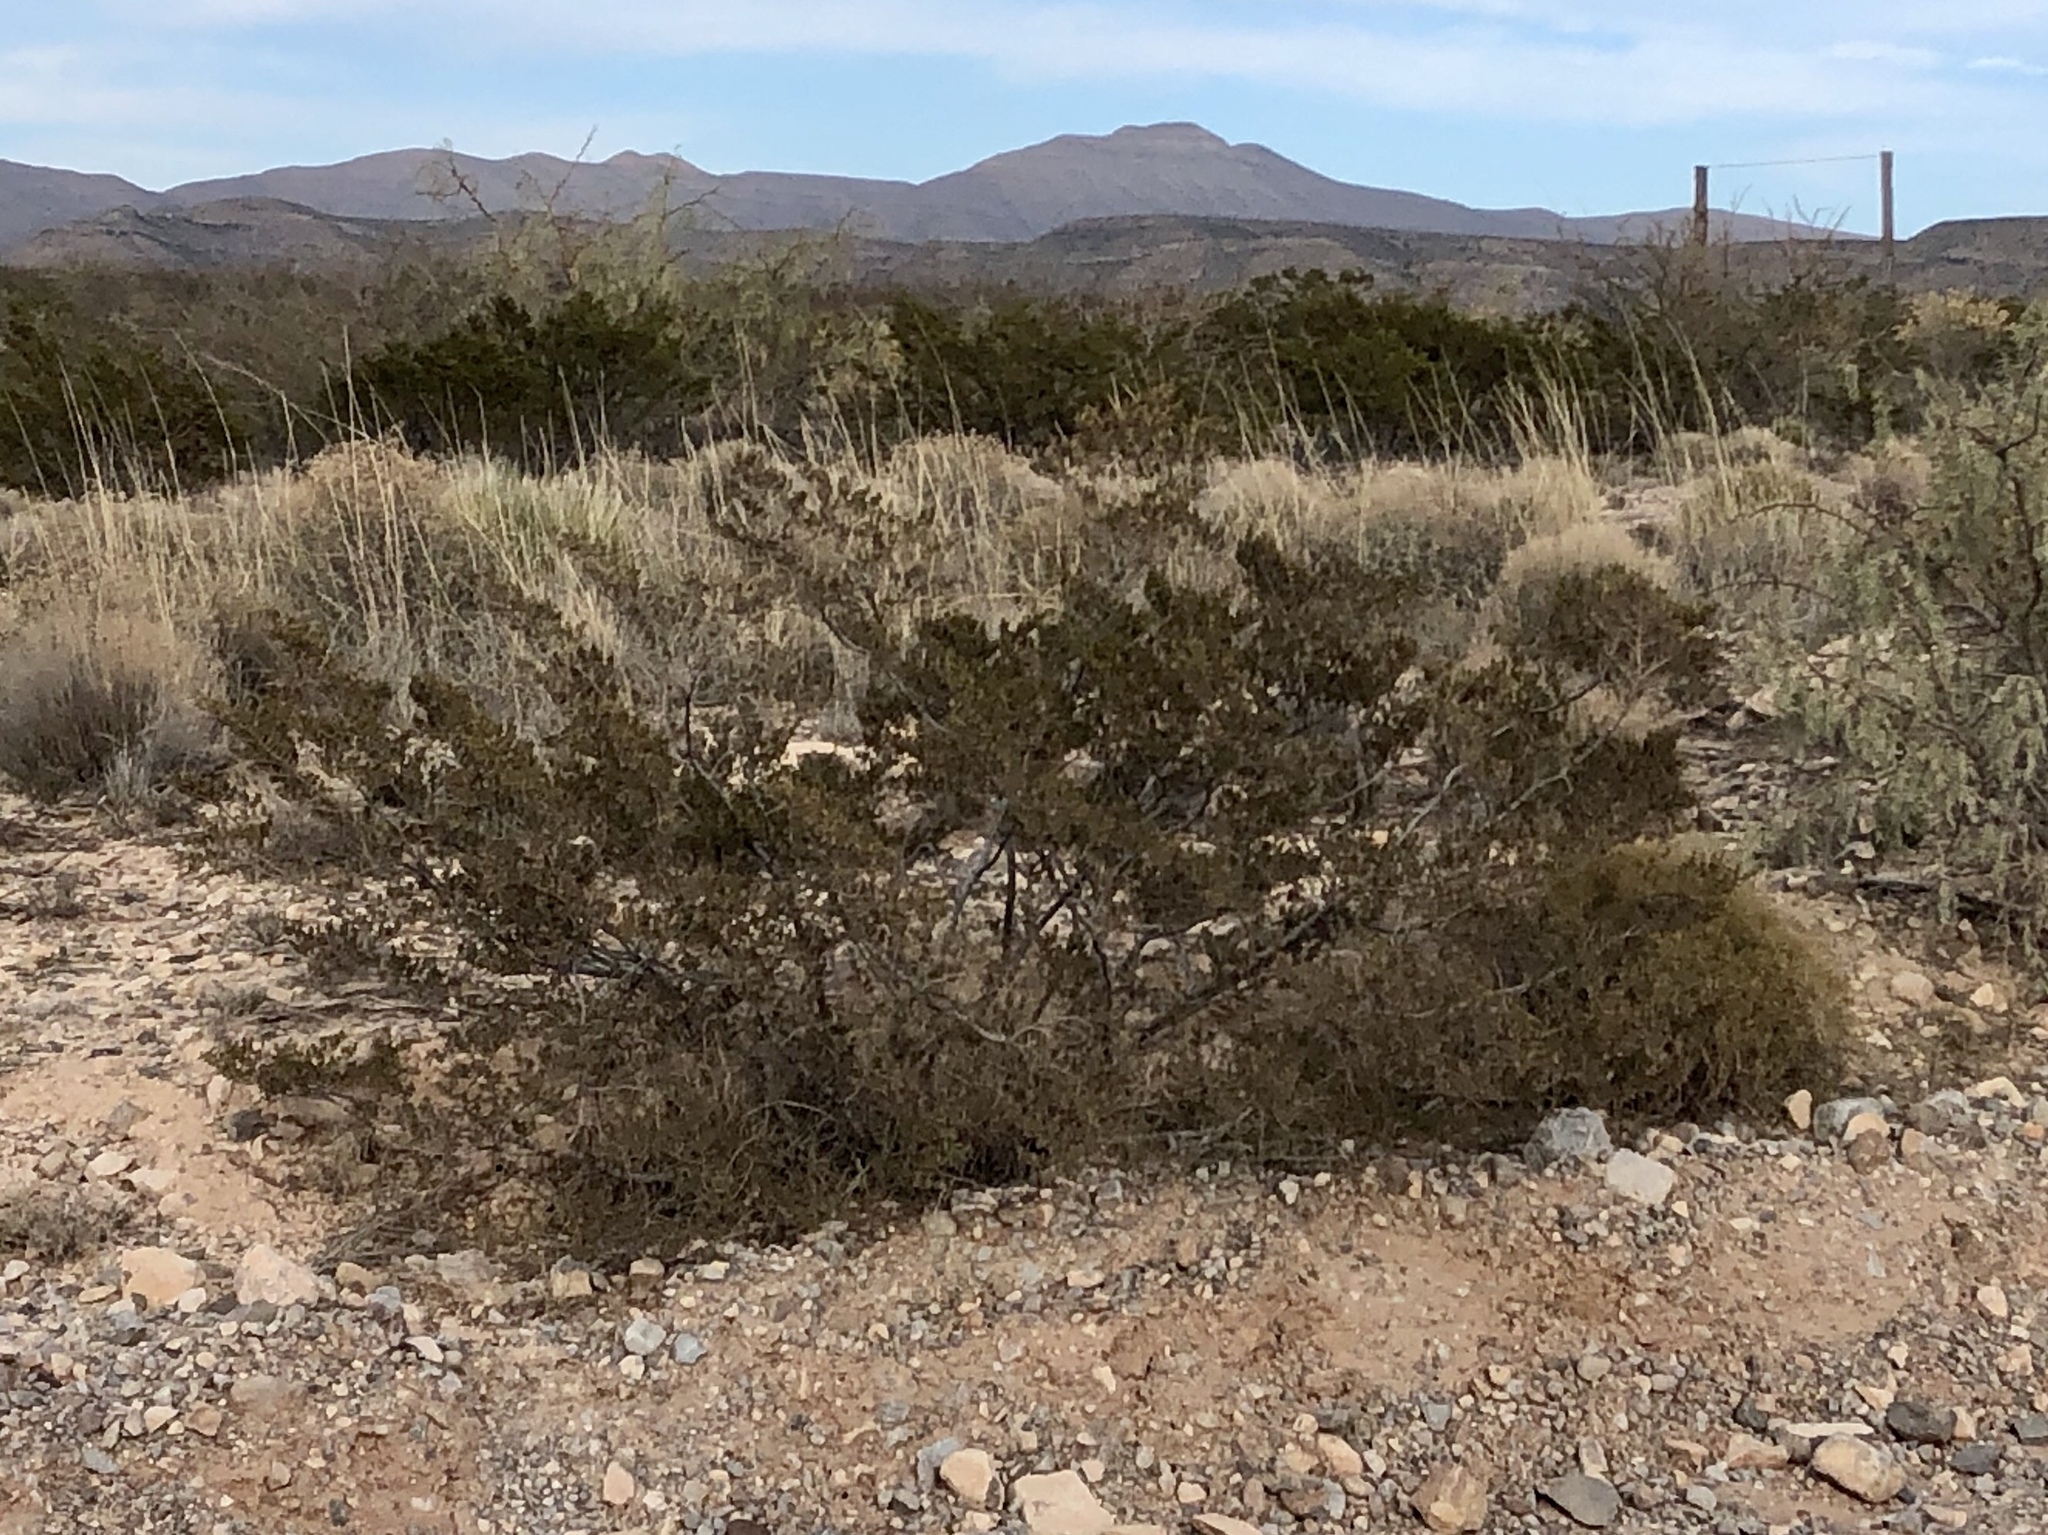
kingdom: Plantae
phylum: Tracheophyta
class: Magnoliopsida
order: Zygophyllales
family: Zygophyllaceae
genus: Larrea
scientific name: Larrea tridentata
